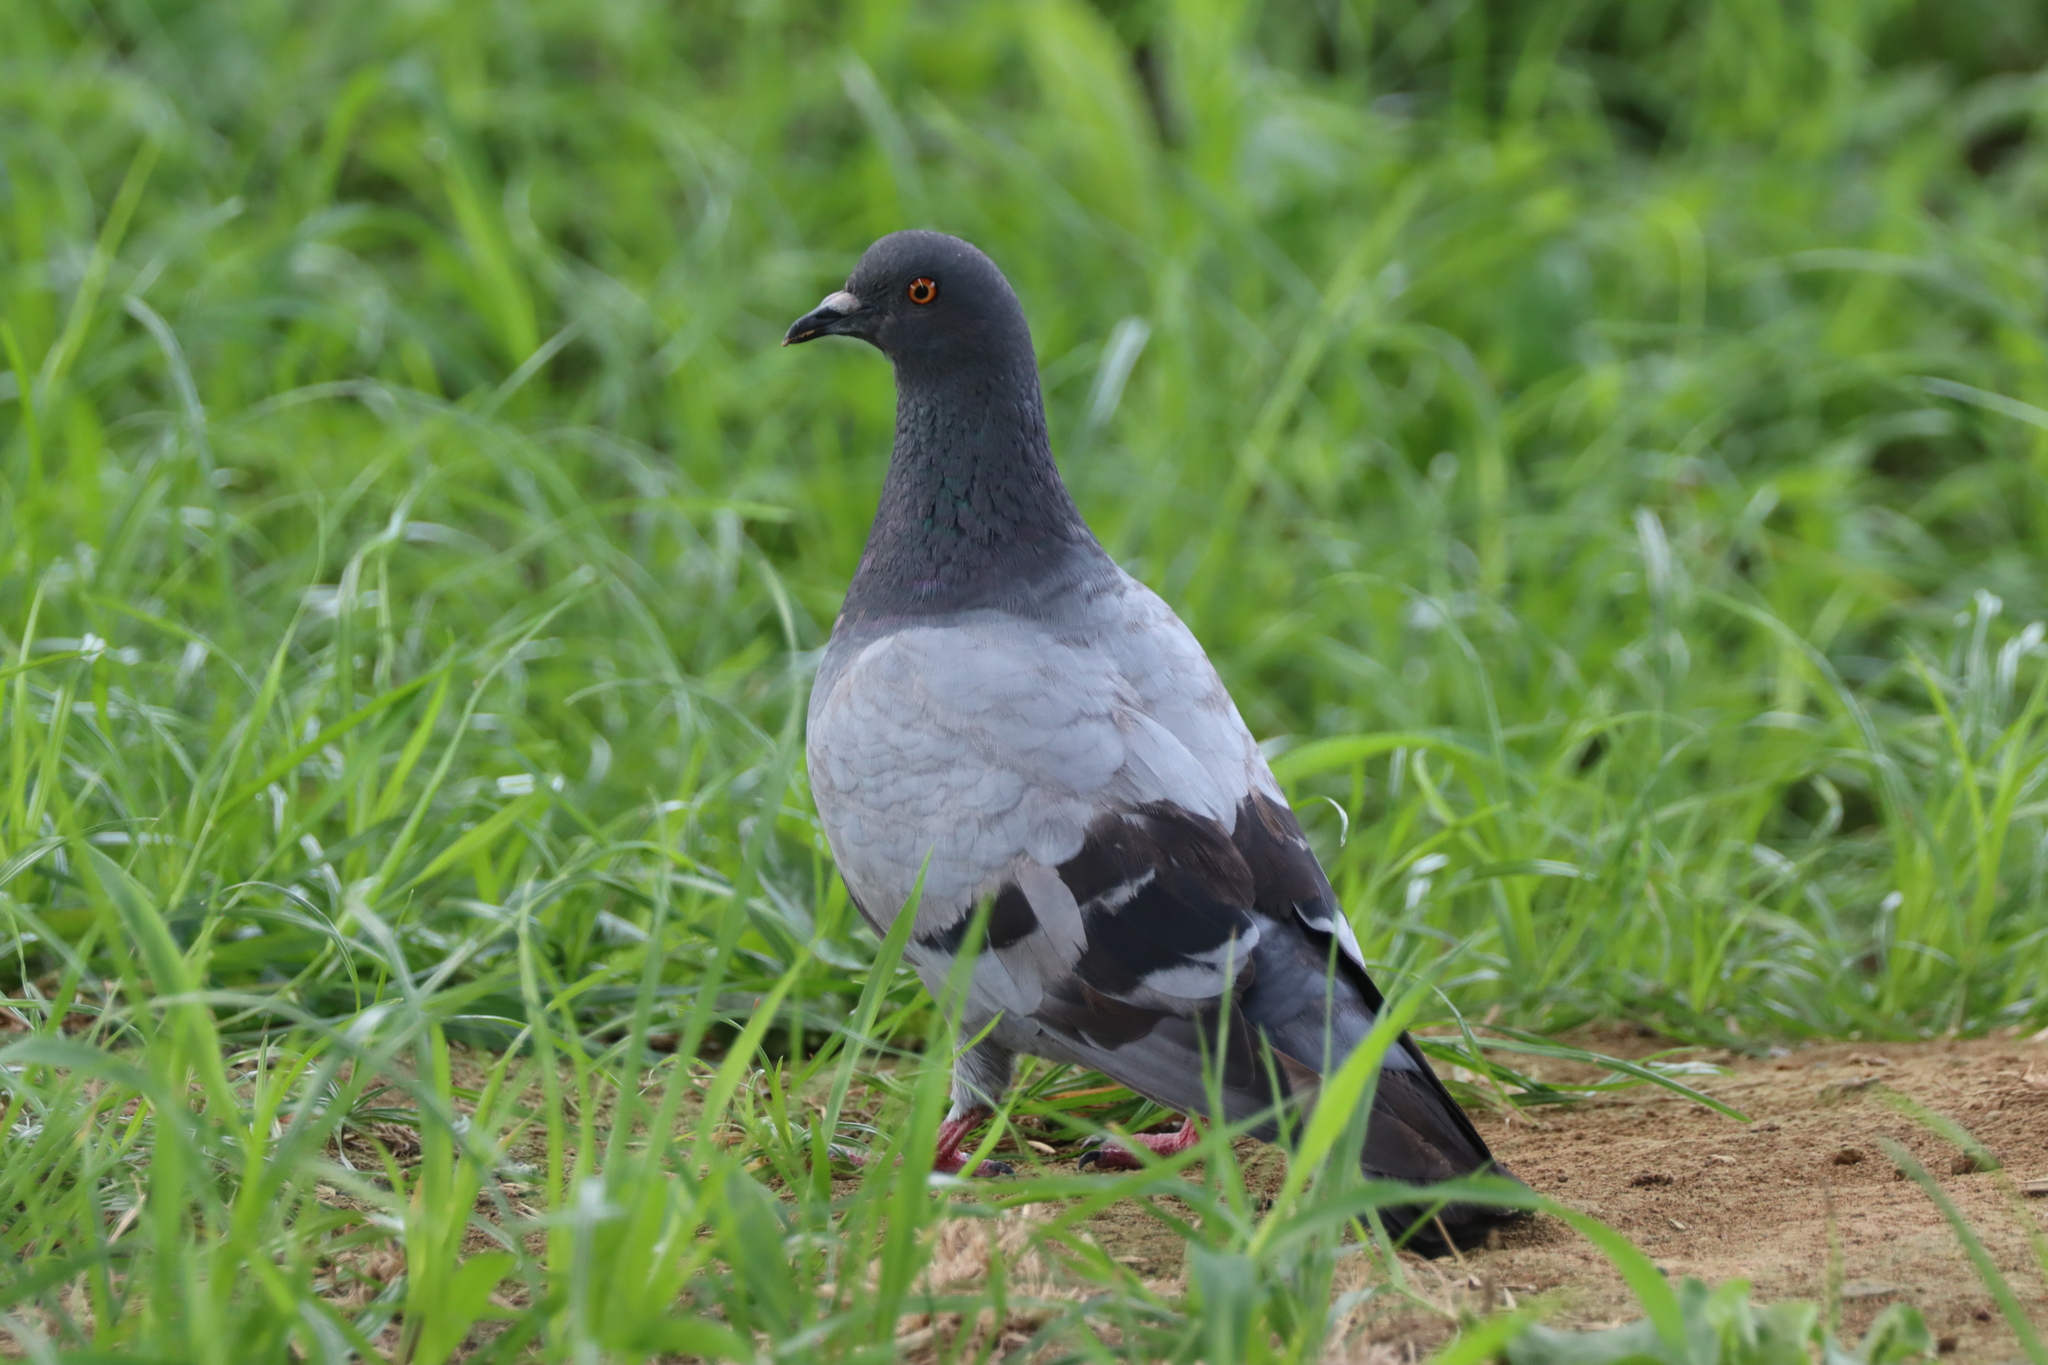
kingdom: Animalia
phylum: Chordata
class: Aves
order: Columbiformes
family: Columbidae
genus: Columba
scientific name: Columba livia
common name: Rock pigeon
